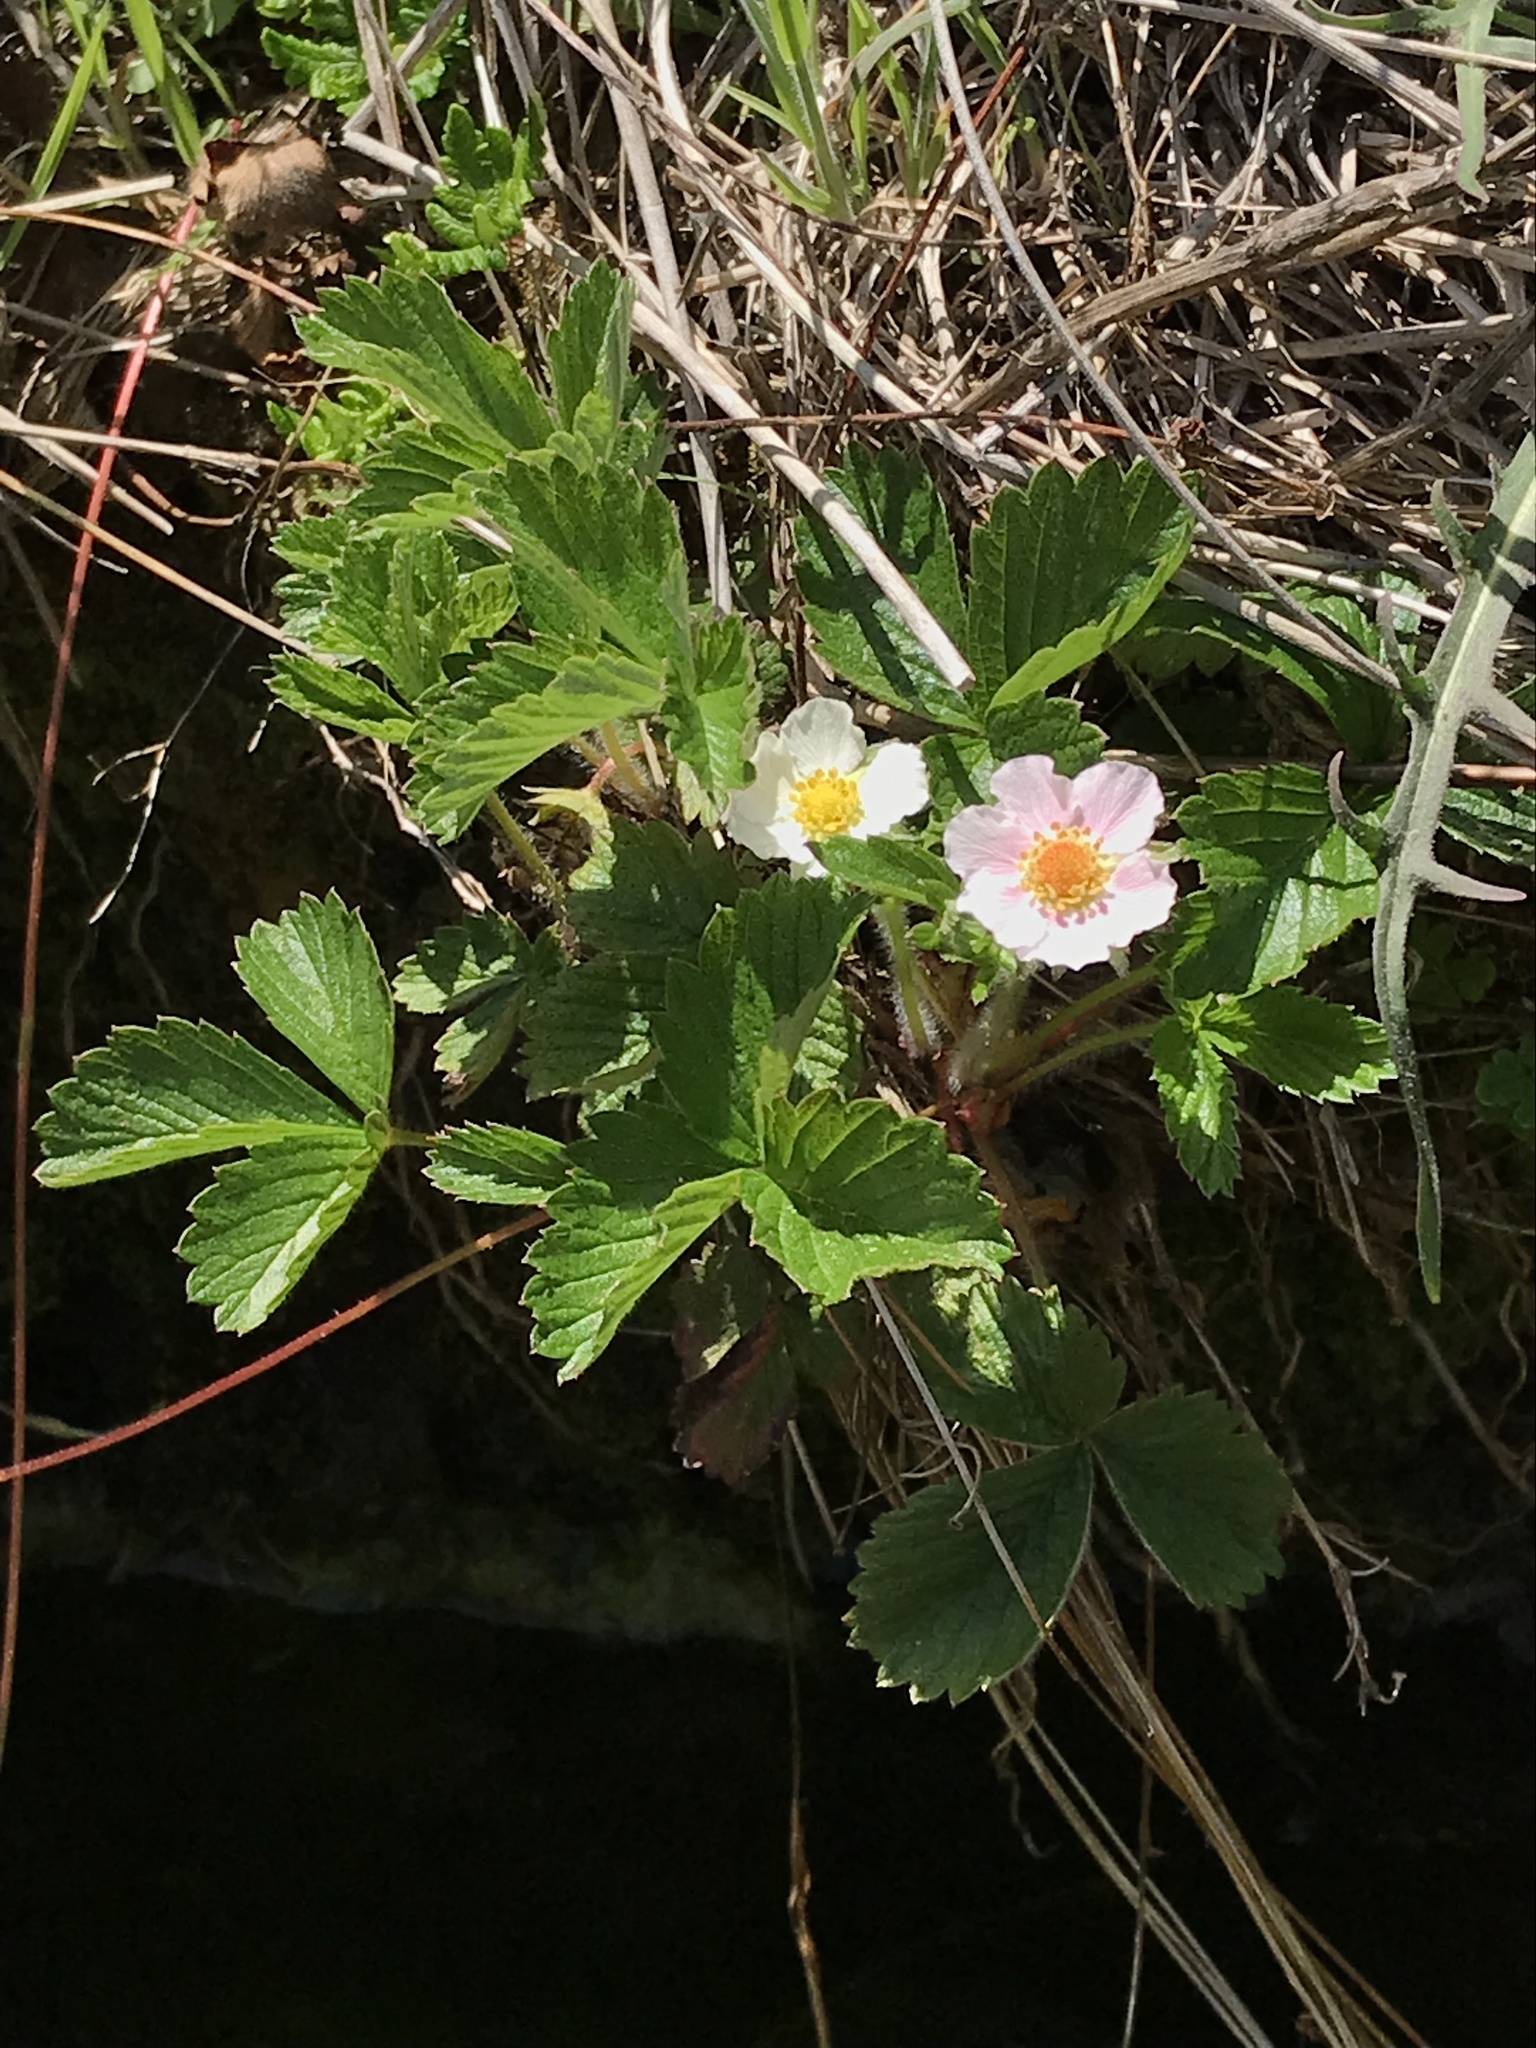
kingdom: Plantae
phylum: Tracheophyta
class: Magnoliopsida
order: Rosales
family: Rosaceae
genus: Fragaria
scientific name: Fragaria vesca
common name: Wild strawberry
